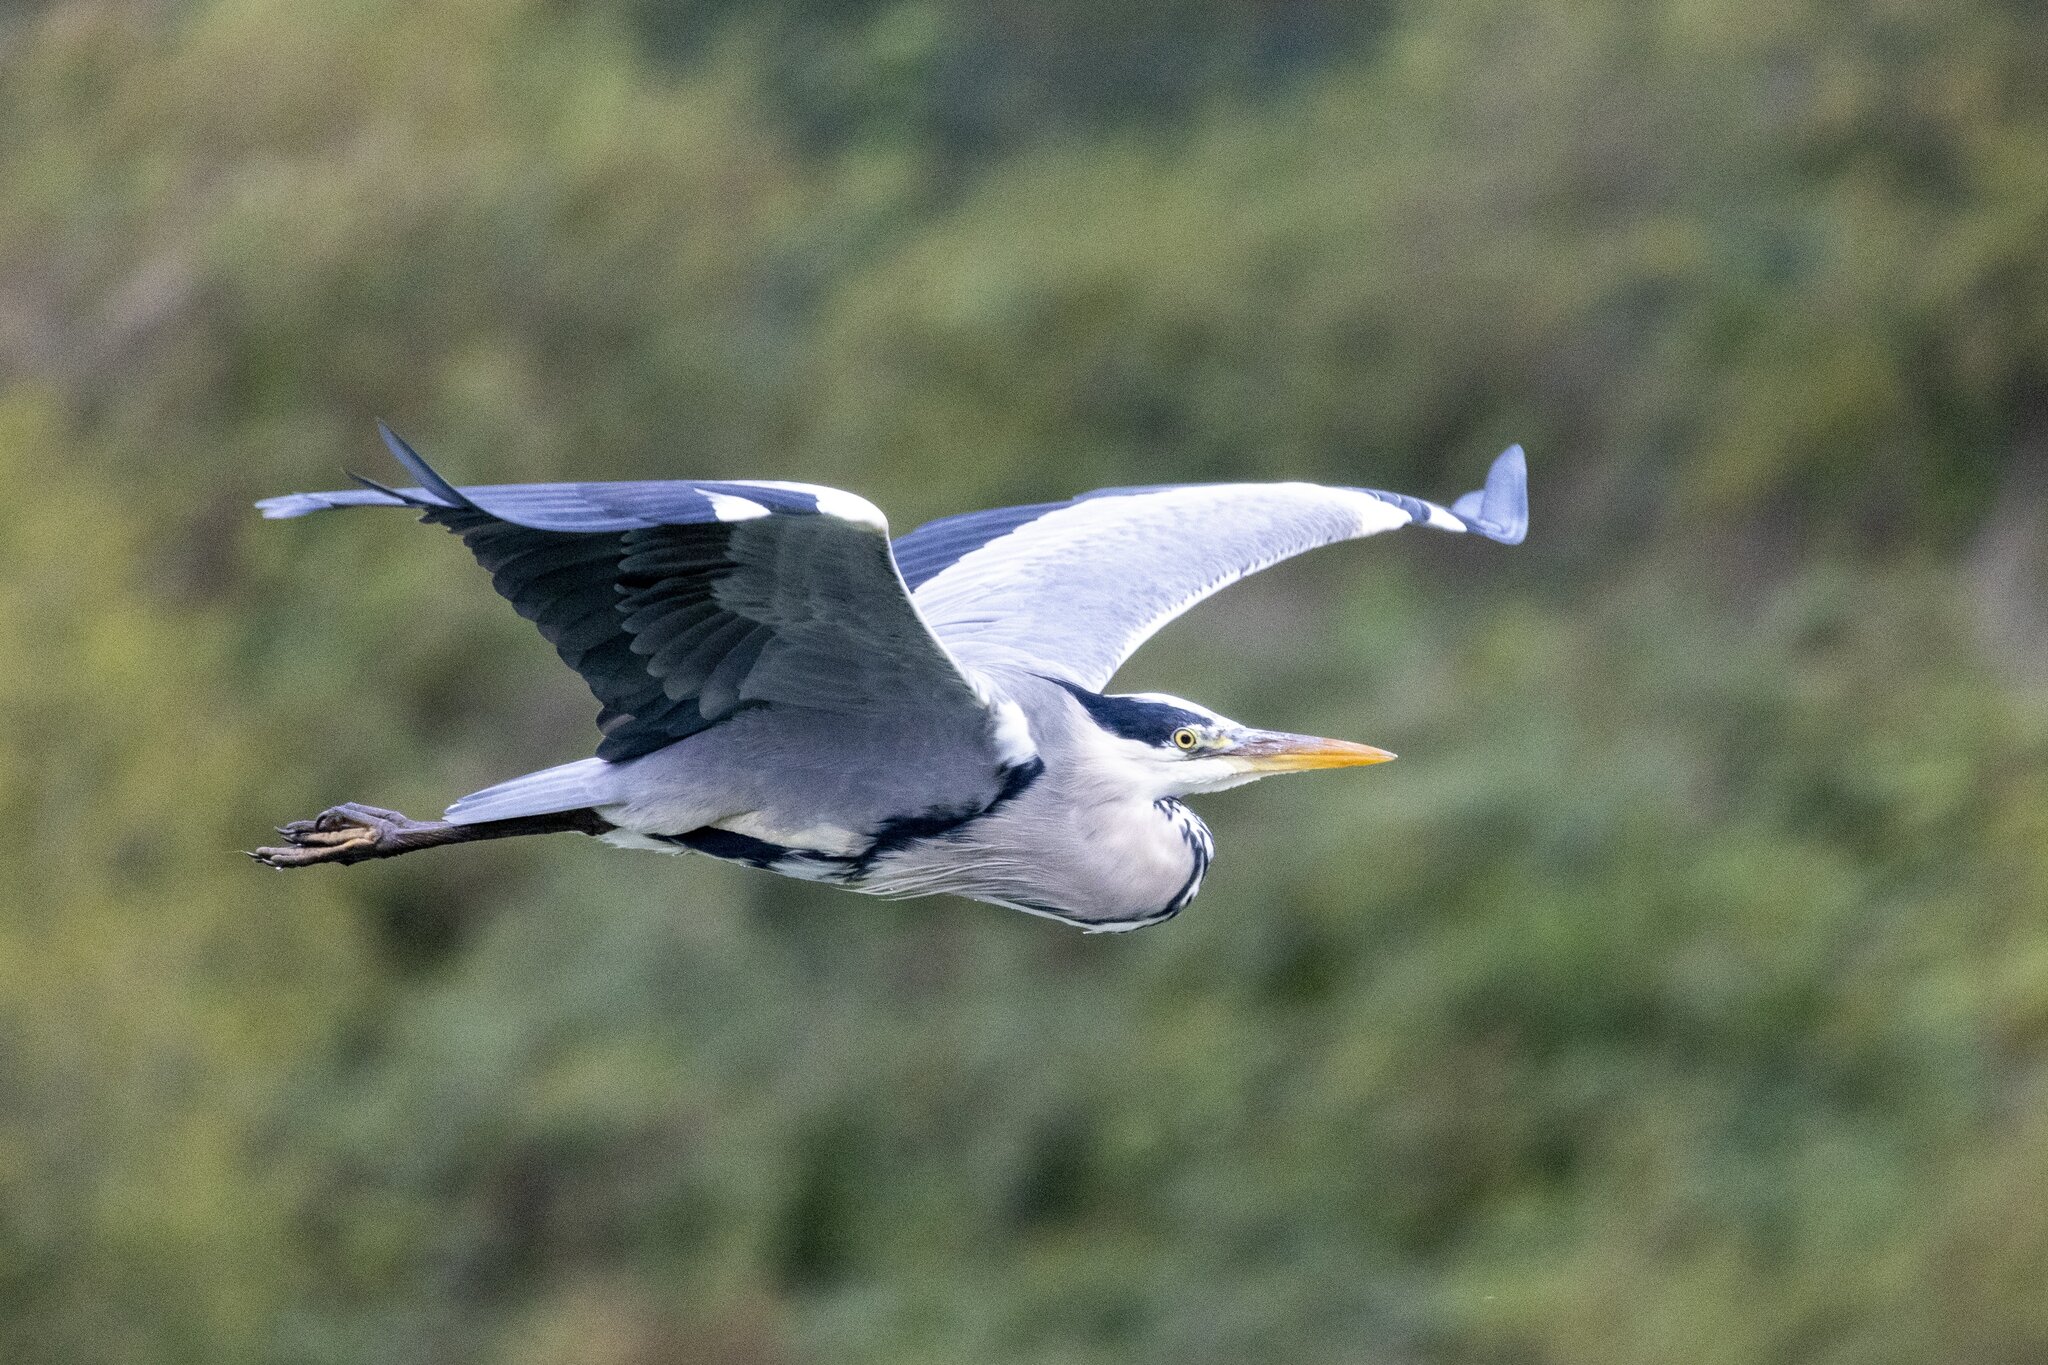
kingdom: Animalia
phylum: Chordata
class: Aves
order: Pelecaniformes
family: Ardeidae
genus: Ardea
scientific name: Ardea cinerea
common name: Grey heron
